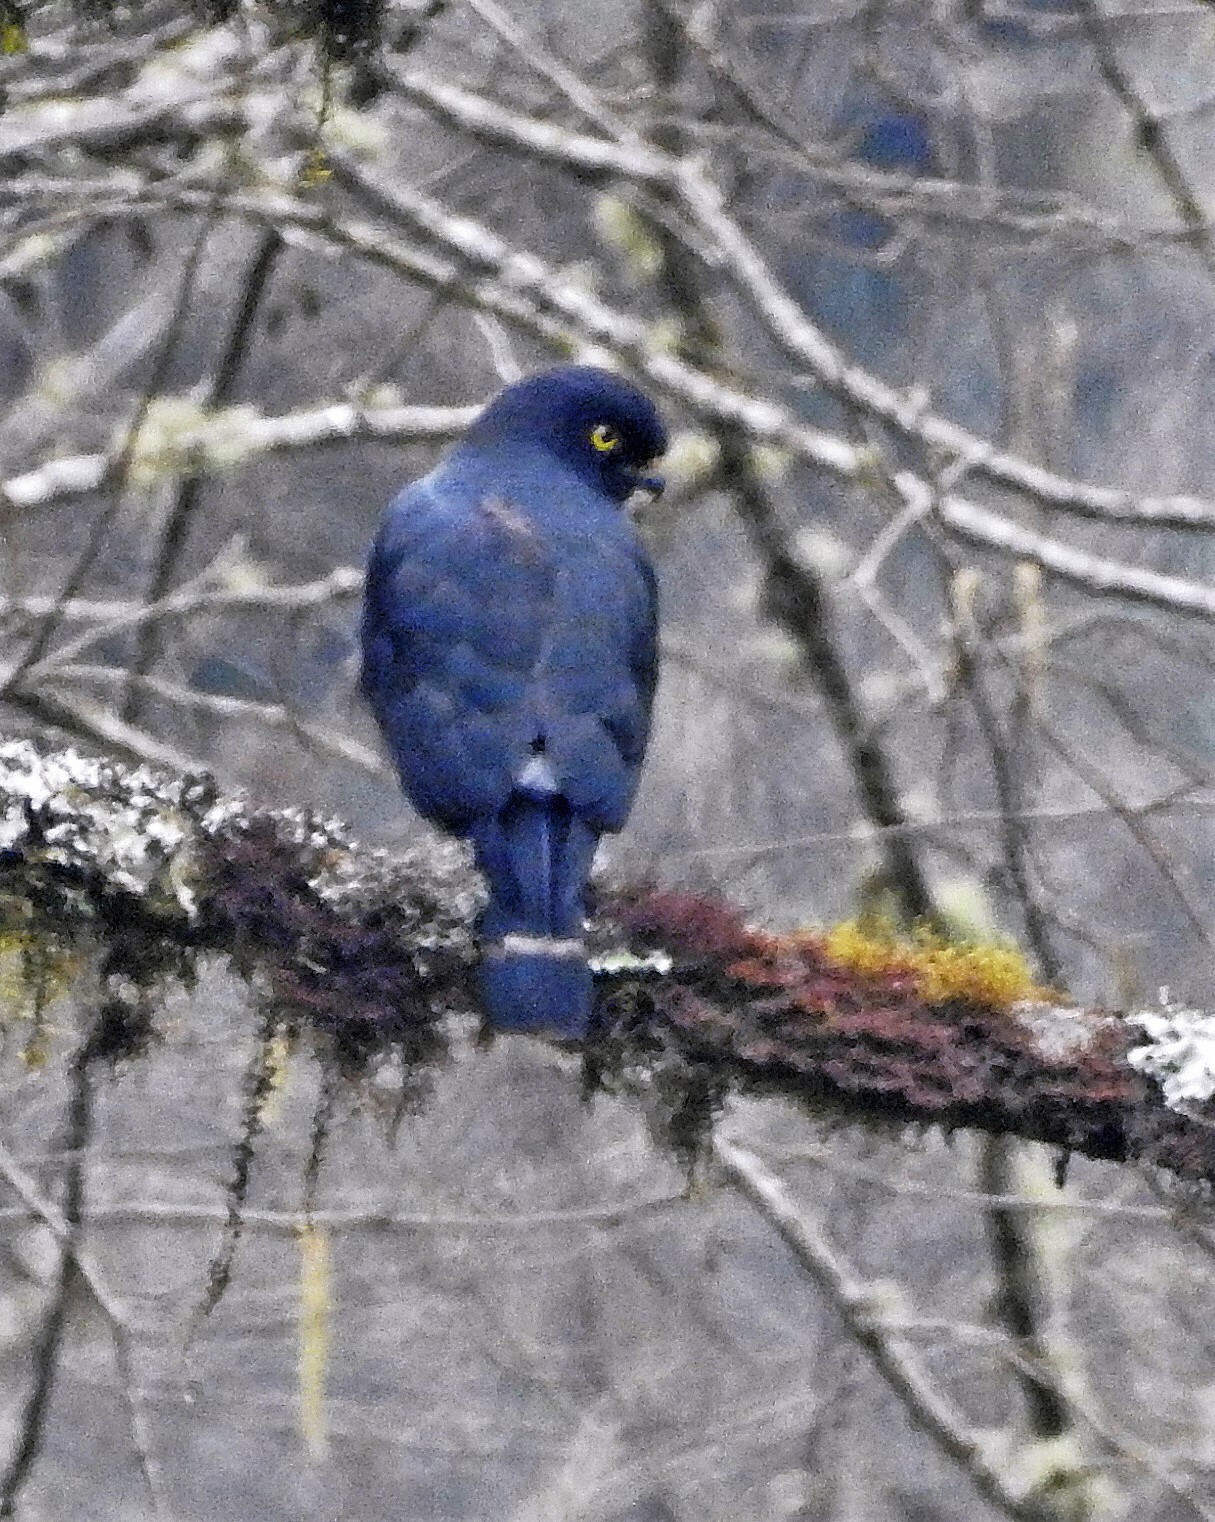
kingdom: Animalia
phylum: Chordata
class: Aves
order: Accipitriformes
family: Accipitridae
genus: Percnohierax
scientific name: Percnohierax leucorrhous
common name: White-rumped hawk
